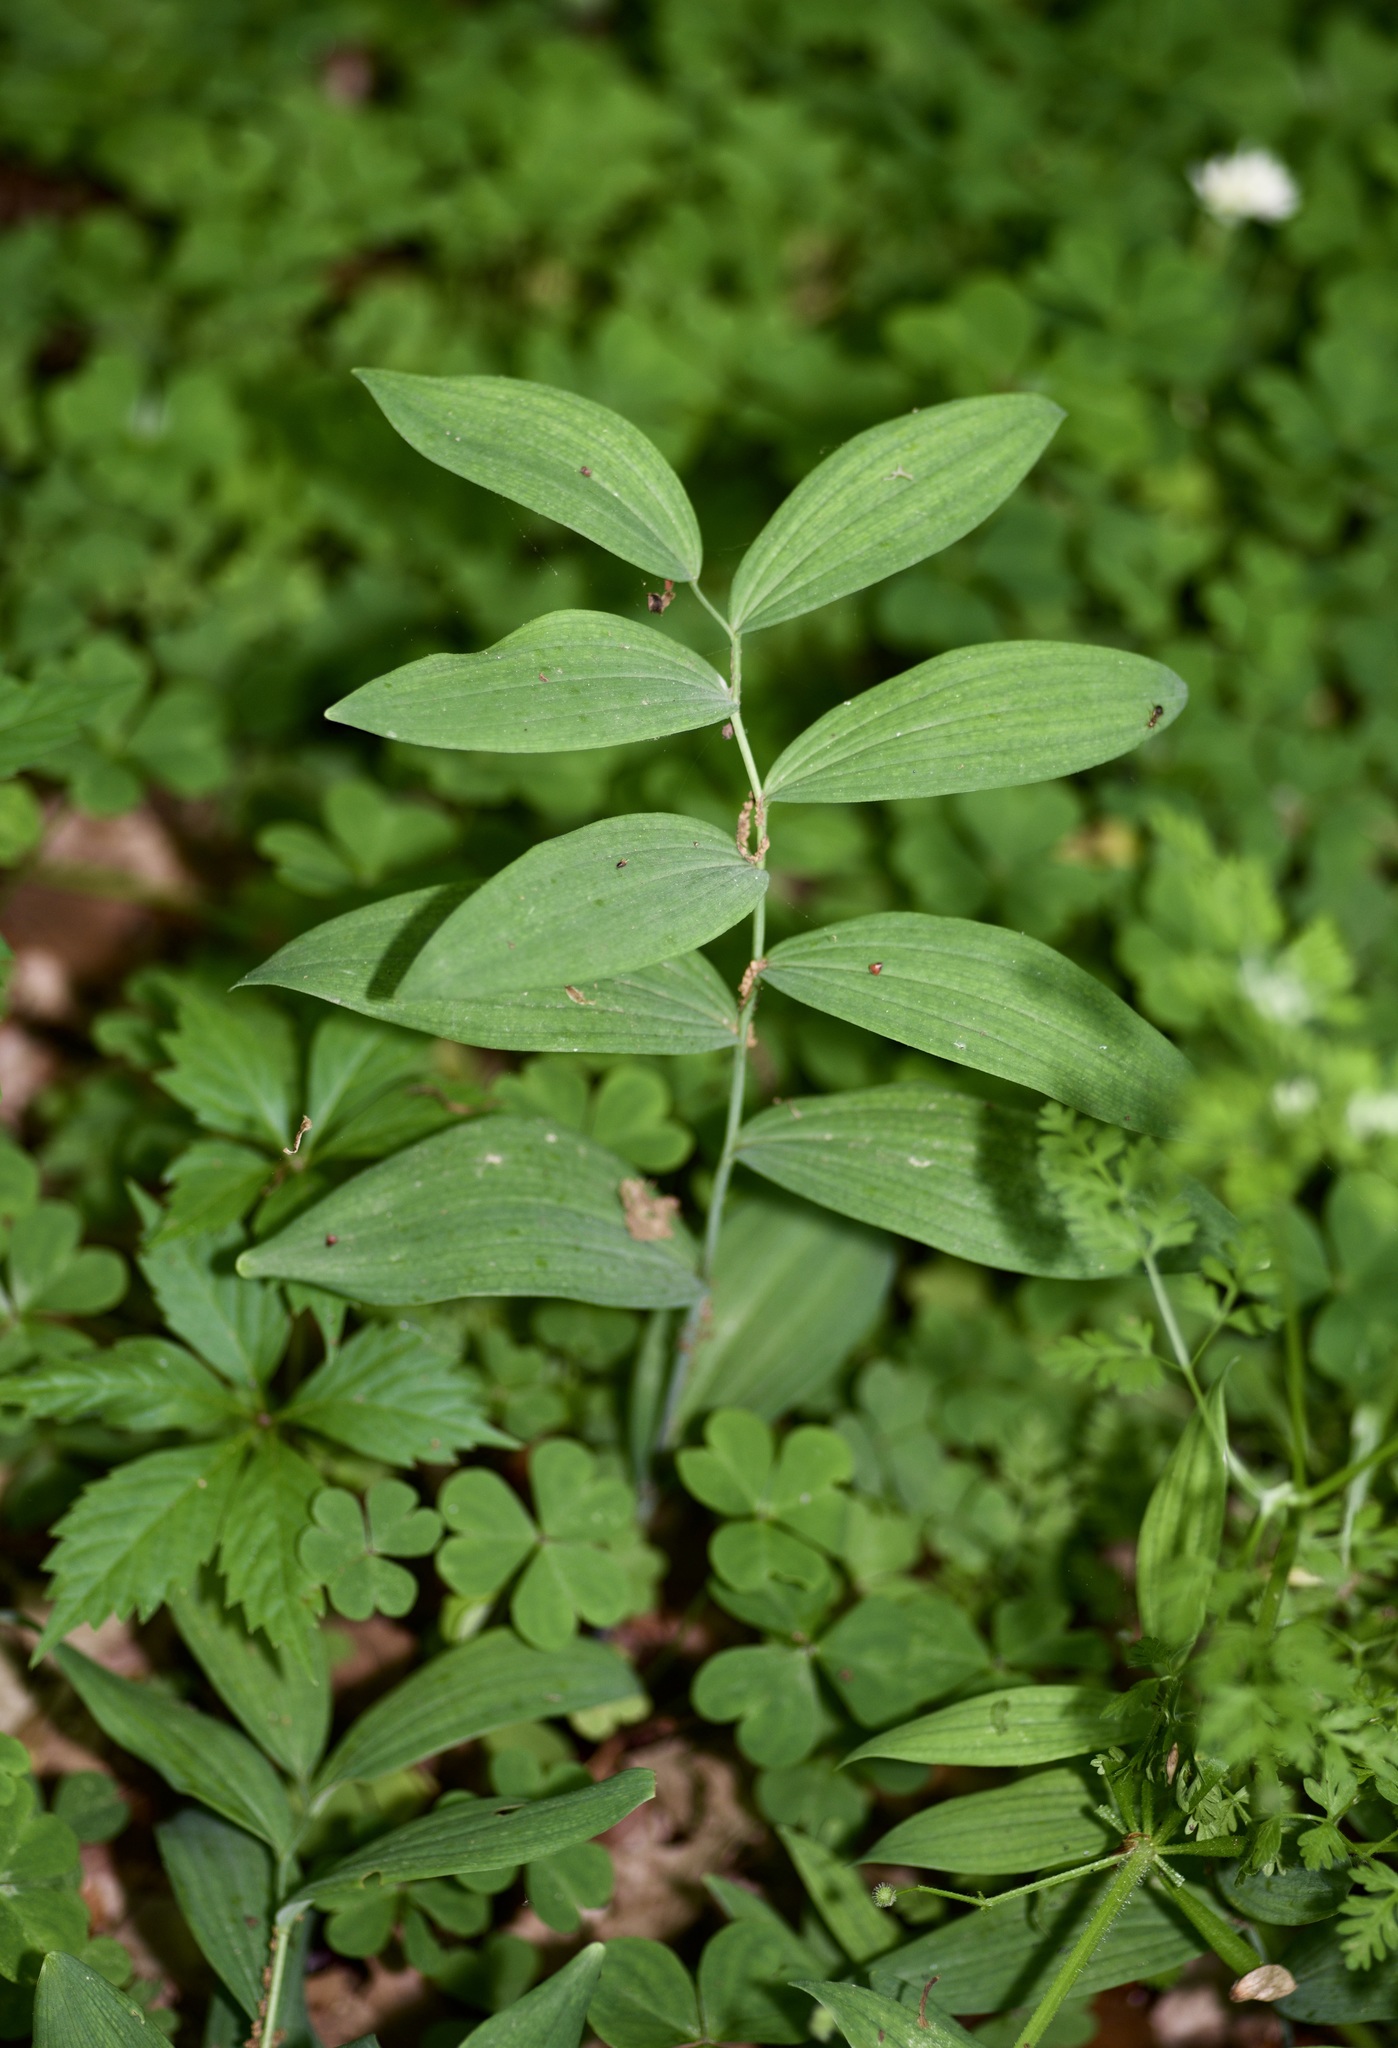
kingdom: Plantae
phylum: Tracheophyta
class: Liliopsida
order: Asparagales
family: Asparagaceae
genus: Polygonatum
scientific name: Polygonatum biflorum
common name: American solomon's-seal
